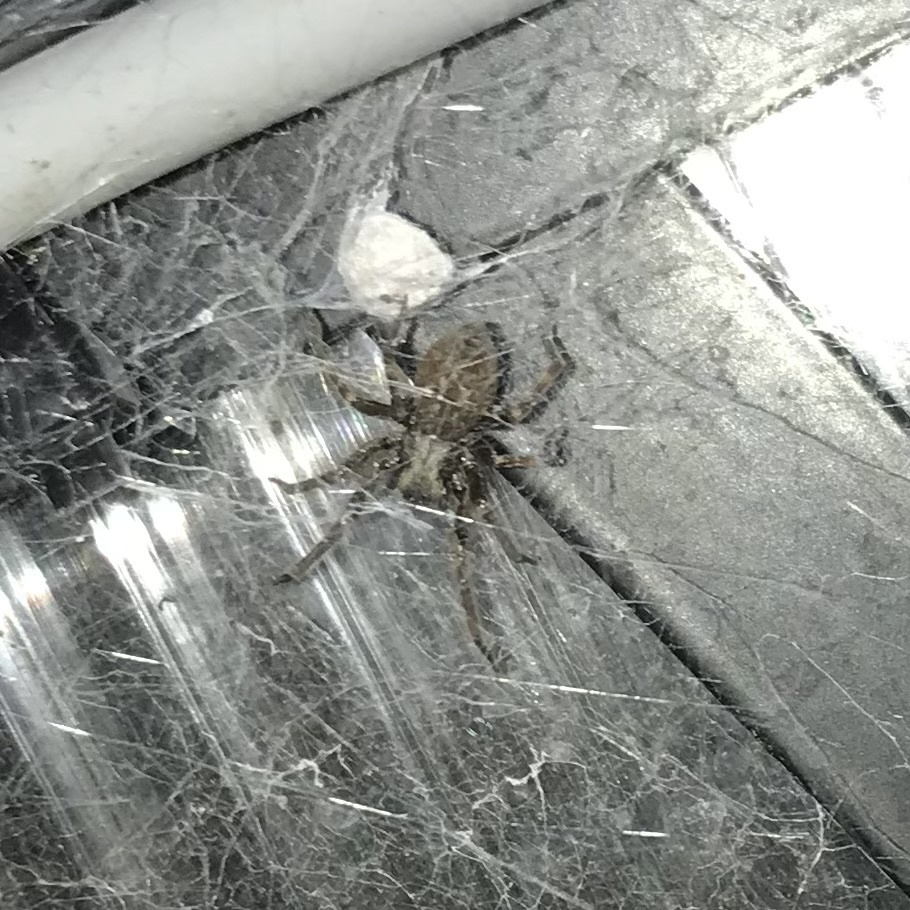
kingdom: Animalia
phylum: Arthropoda
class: Arachnida
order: Araneae
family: Desidae
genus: Badumna
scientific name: Badumna longinqua
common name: Gray house spider
